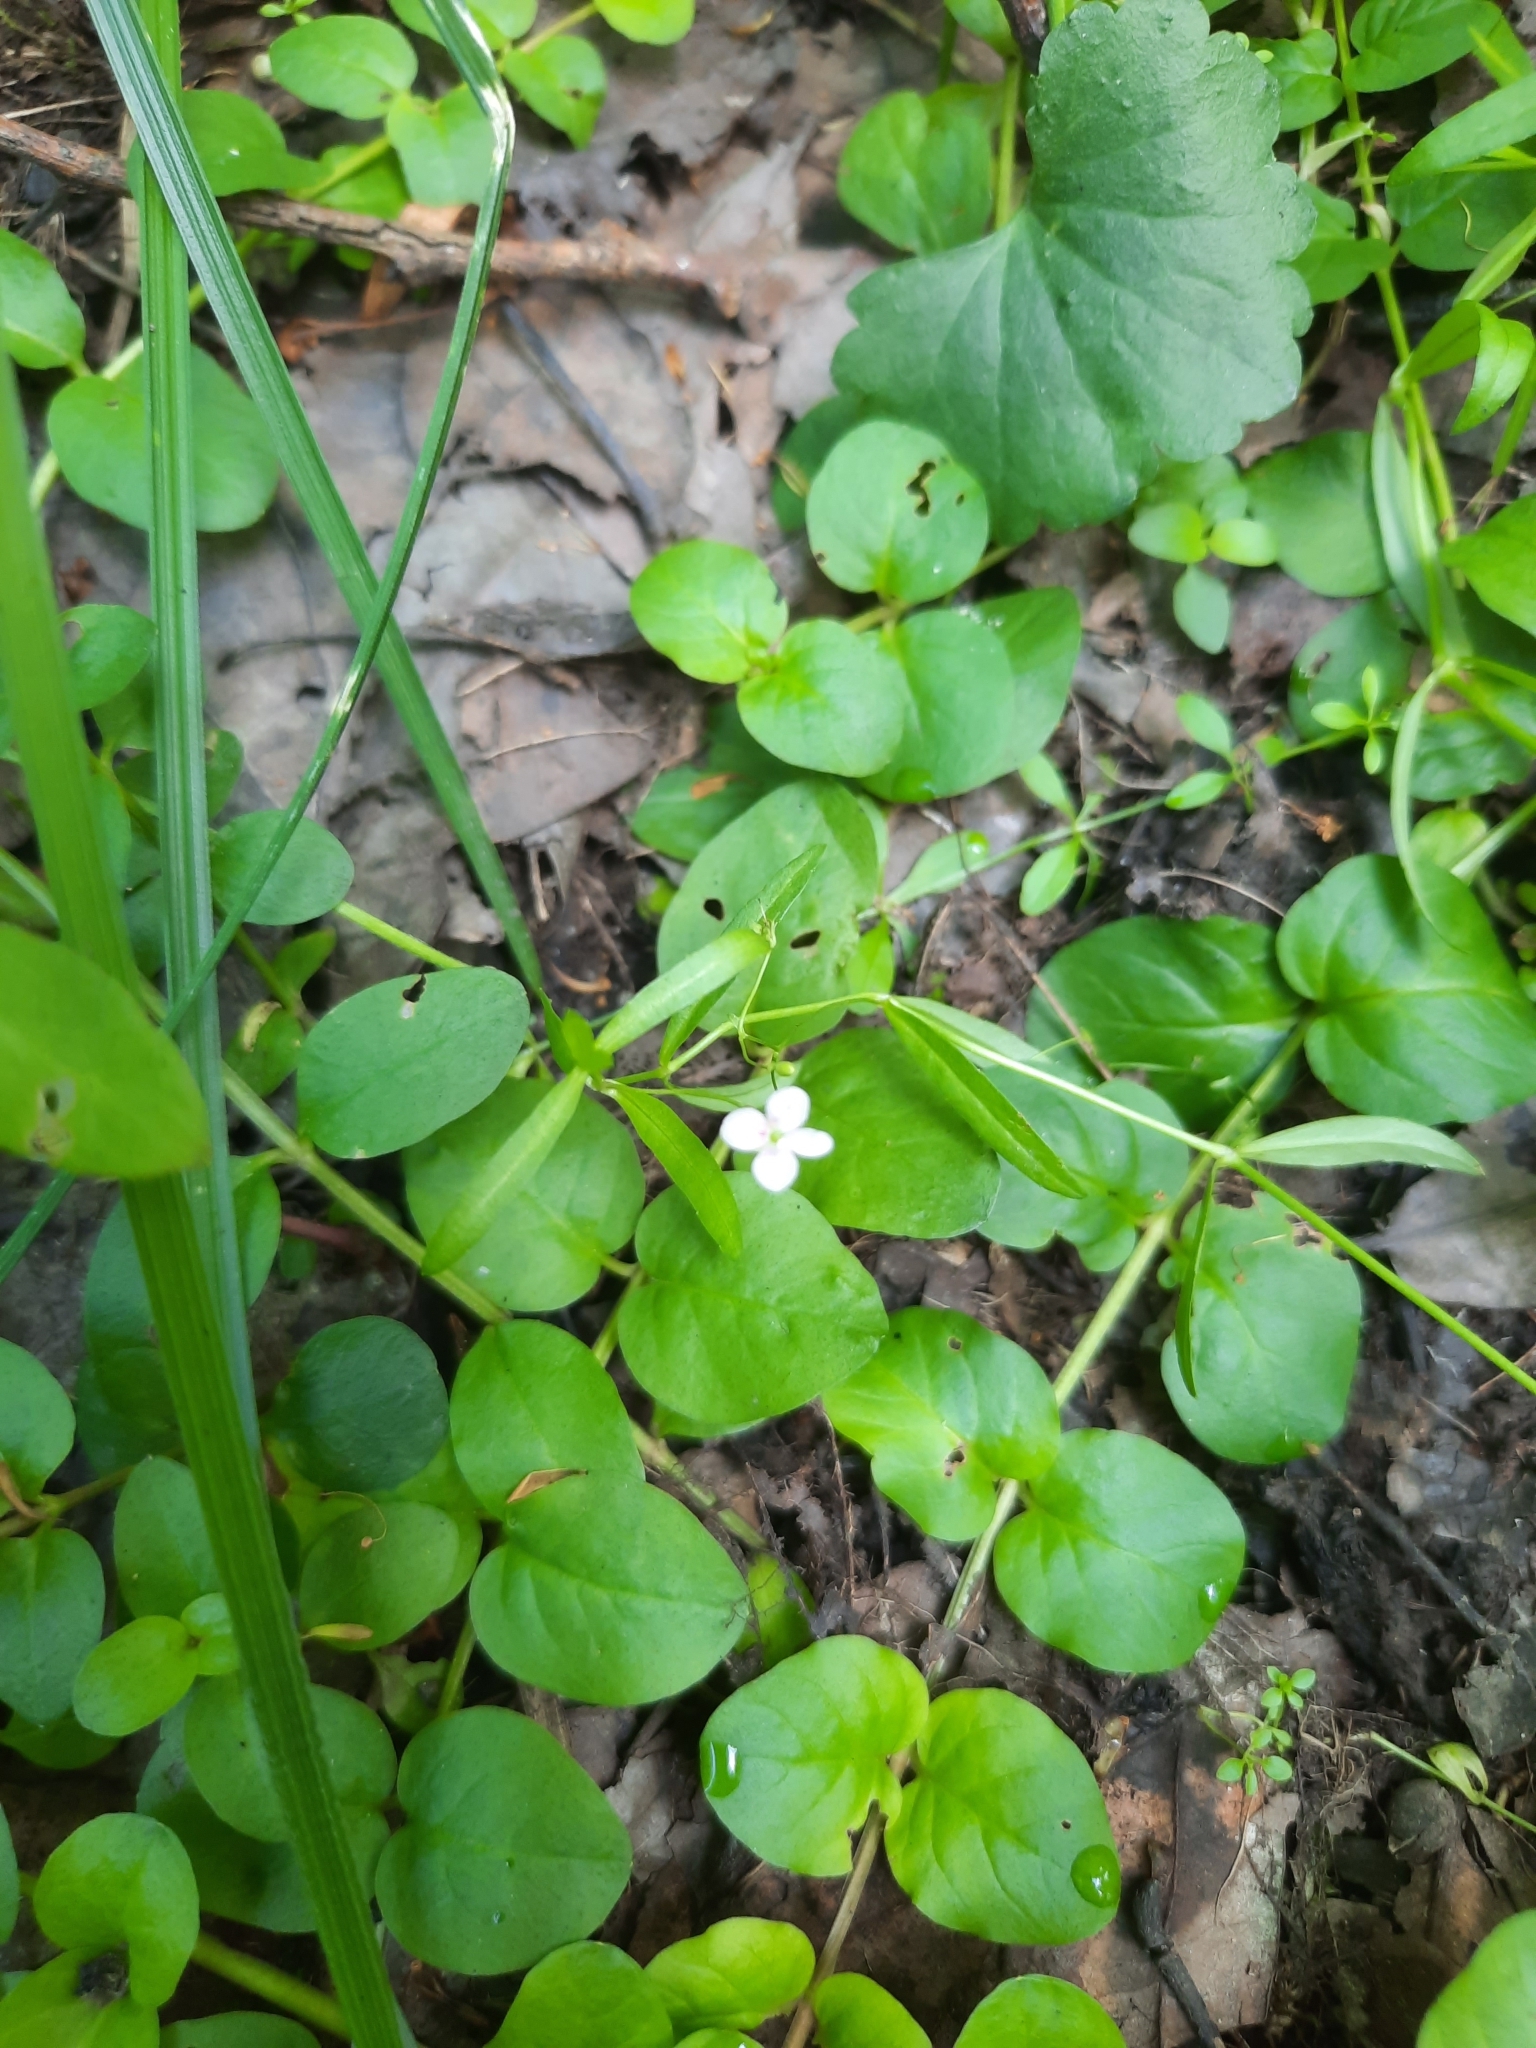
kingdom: Plantae
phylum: Tracheophyta
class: Magnoliopsida
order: Ericales
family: Primulaceae
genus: Lysimachia
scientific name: Lysimachia nummularia
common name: Moneywort
